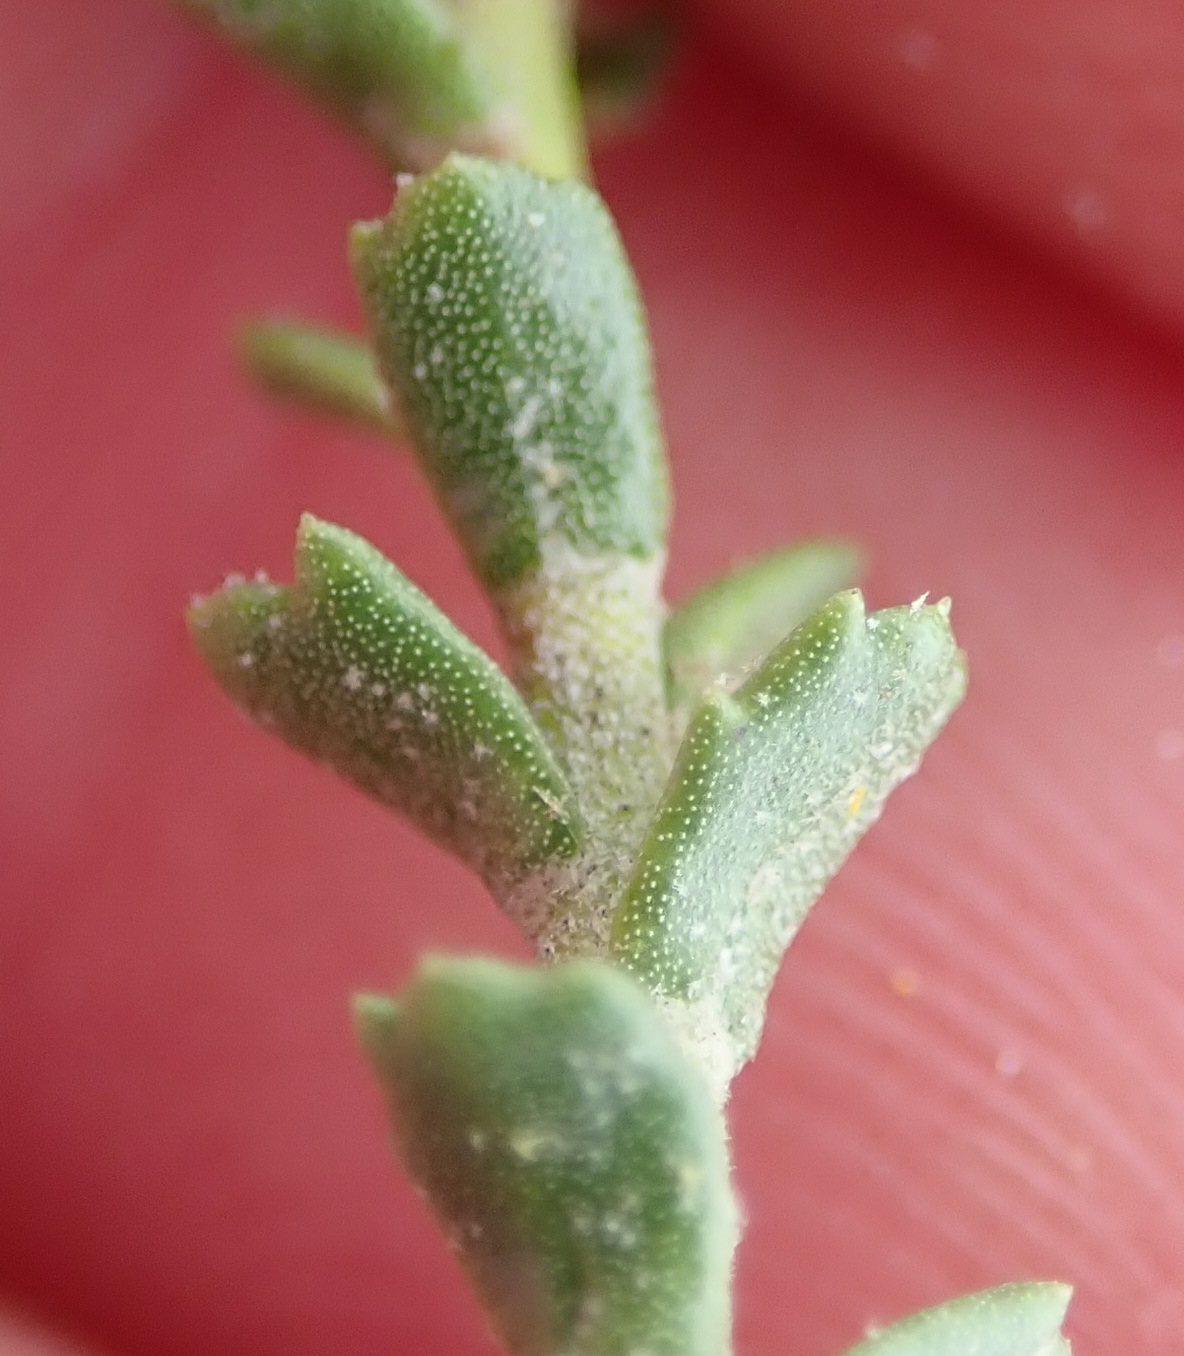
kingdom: Plantae
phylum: Tracheophyta
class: Magnoliopsida
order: Asterales
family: Asteraceae
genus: Athanasia
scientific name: Athanasia quinquedentata
